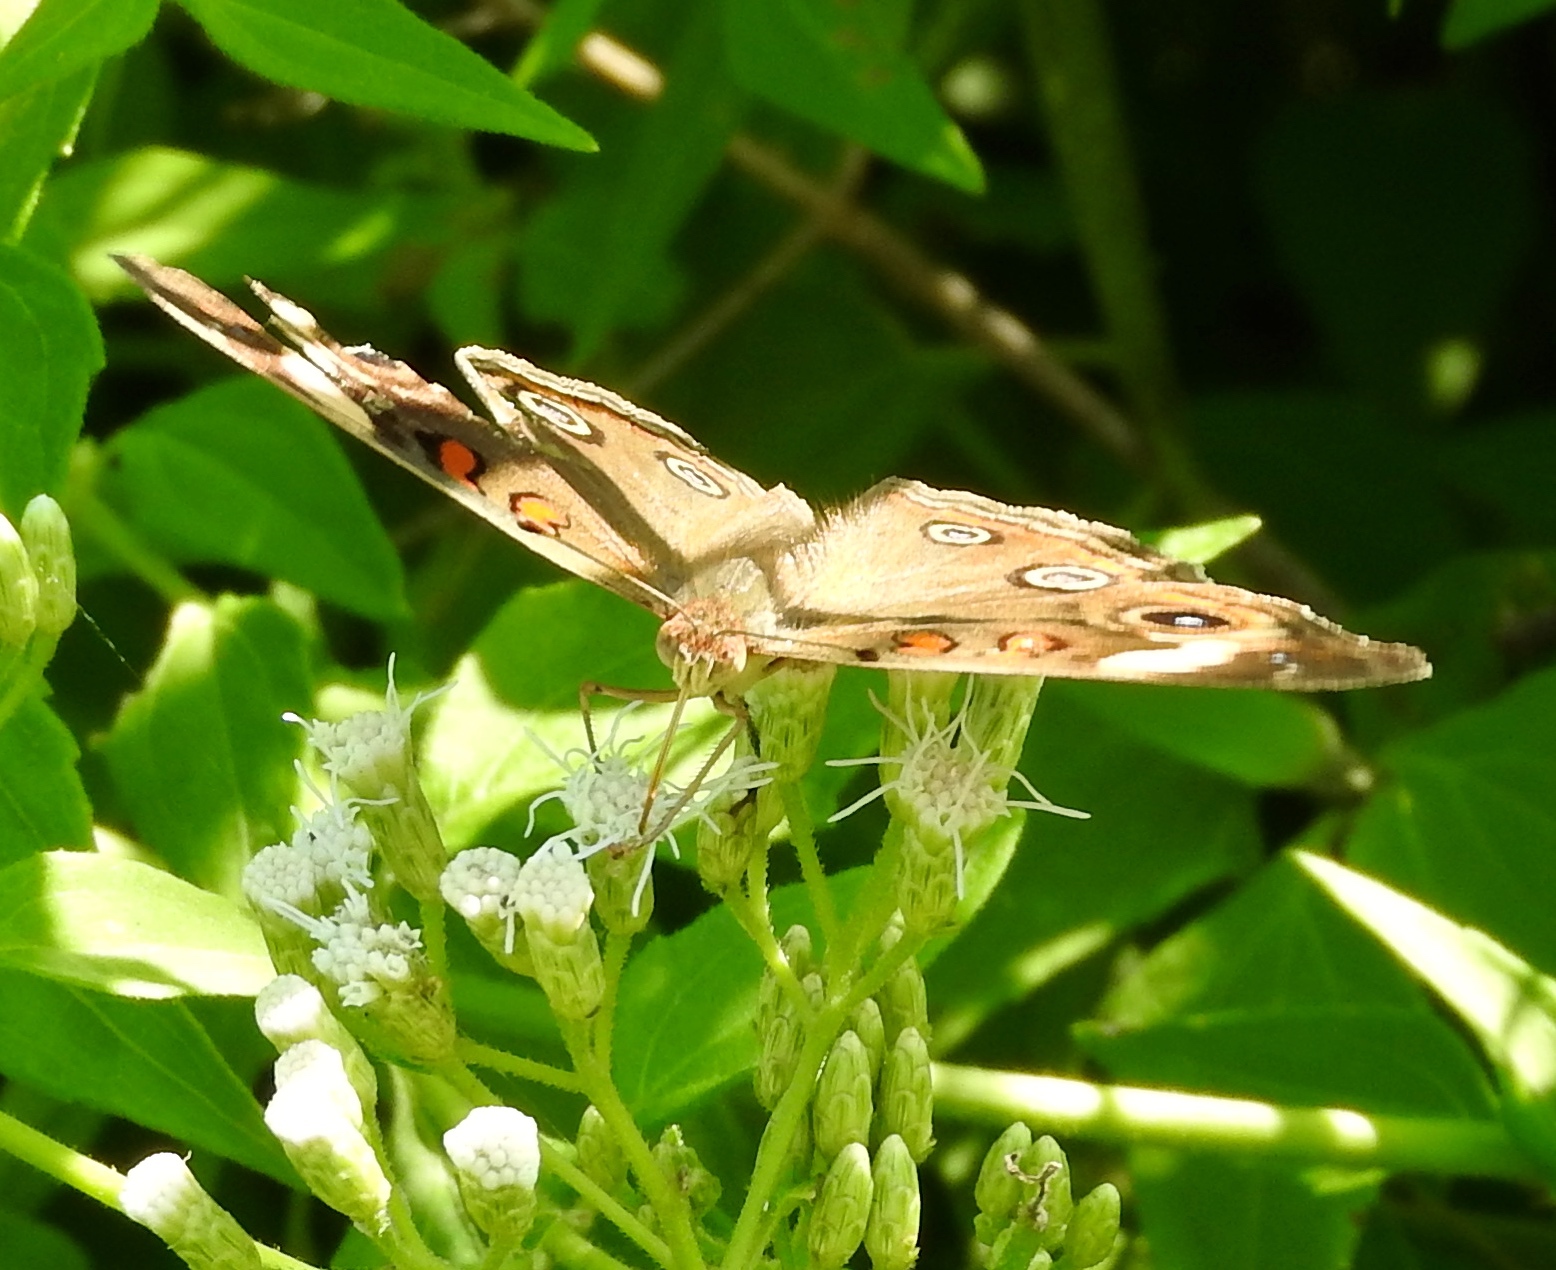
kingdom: Animalia
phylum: Arthropoda
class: Insecta
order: Lepidoptera
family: Nymphalidae
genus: Junonia
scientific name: Junonia
